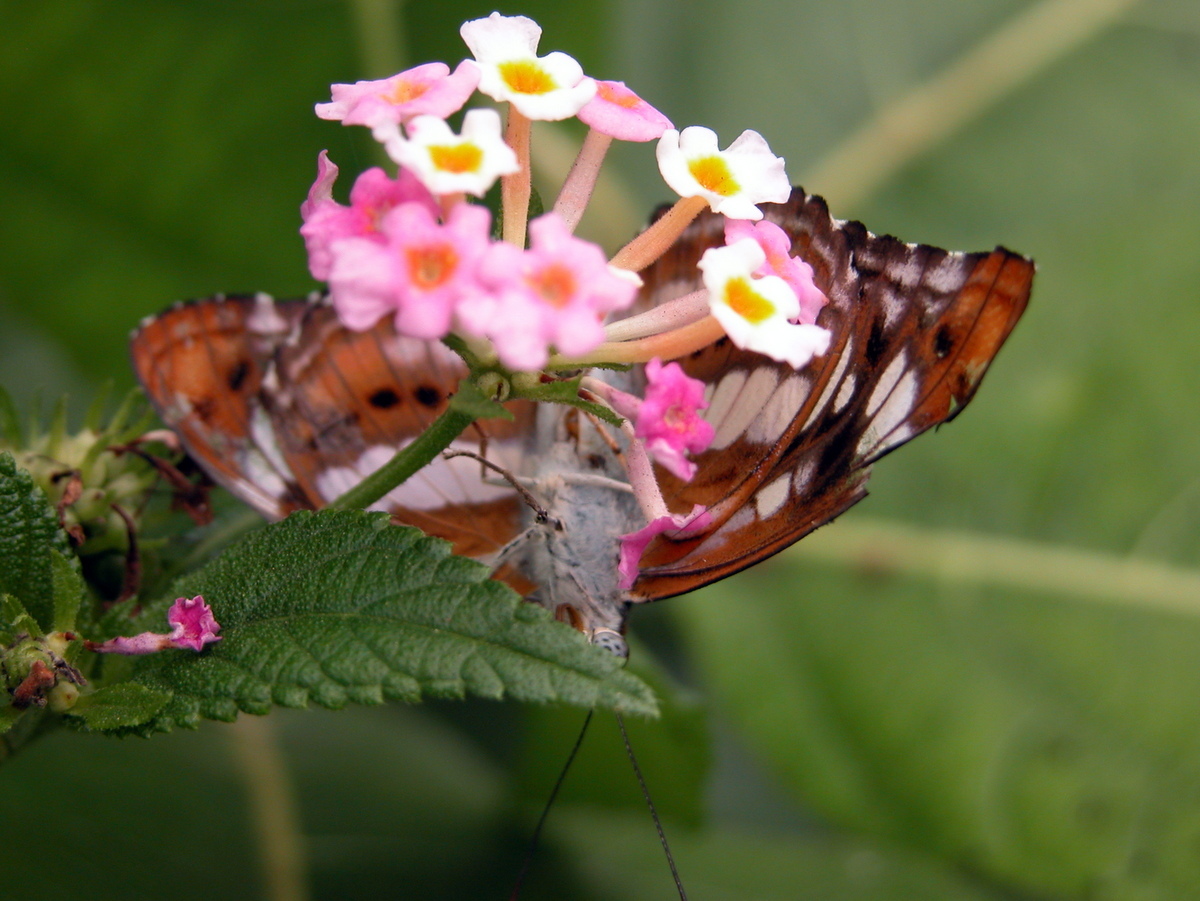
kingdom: Animalia
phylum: Arthropoda
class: Insecta
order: Lepidoptera
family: Nymphalidae
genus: Parathyma
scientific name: Parathyma nefte
